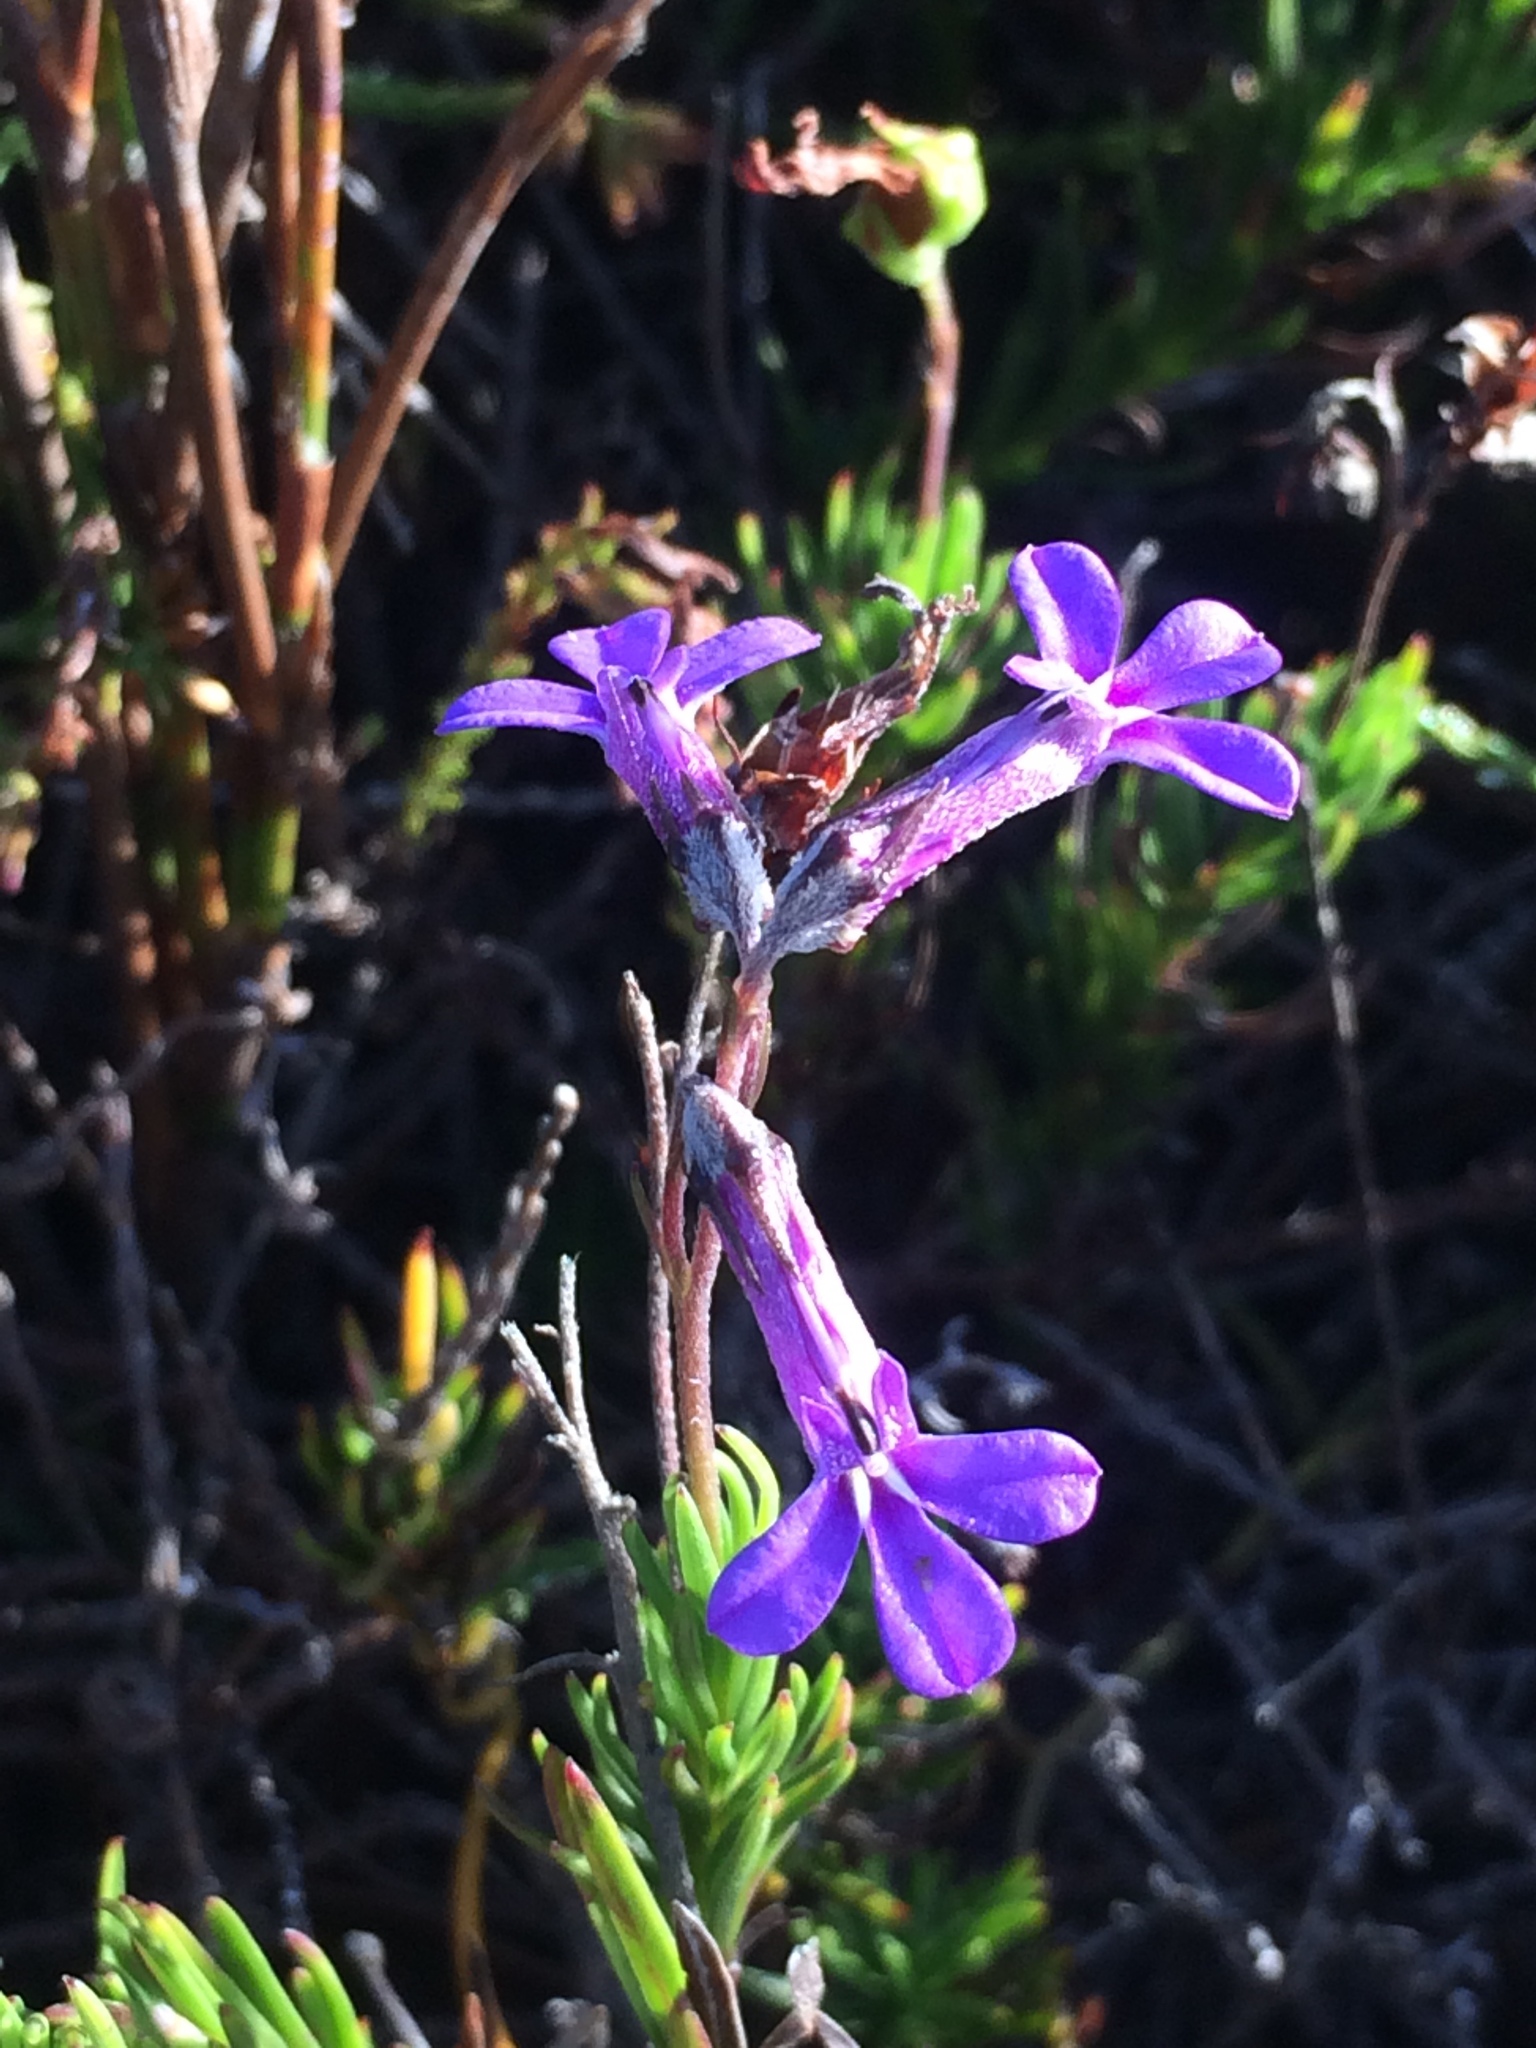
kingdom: Plantae
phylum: Tracheophyta
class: Magnoliopsida
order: Asterales
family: Campanulaceae
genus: Lobelia
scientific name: Lobelia pinifolia
